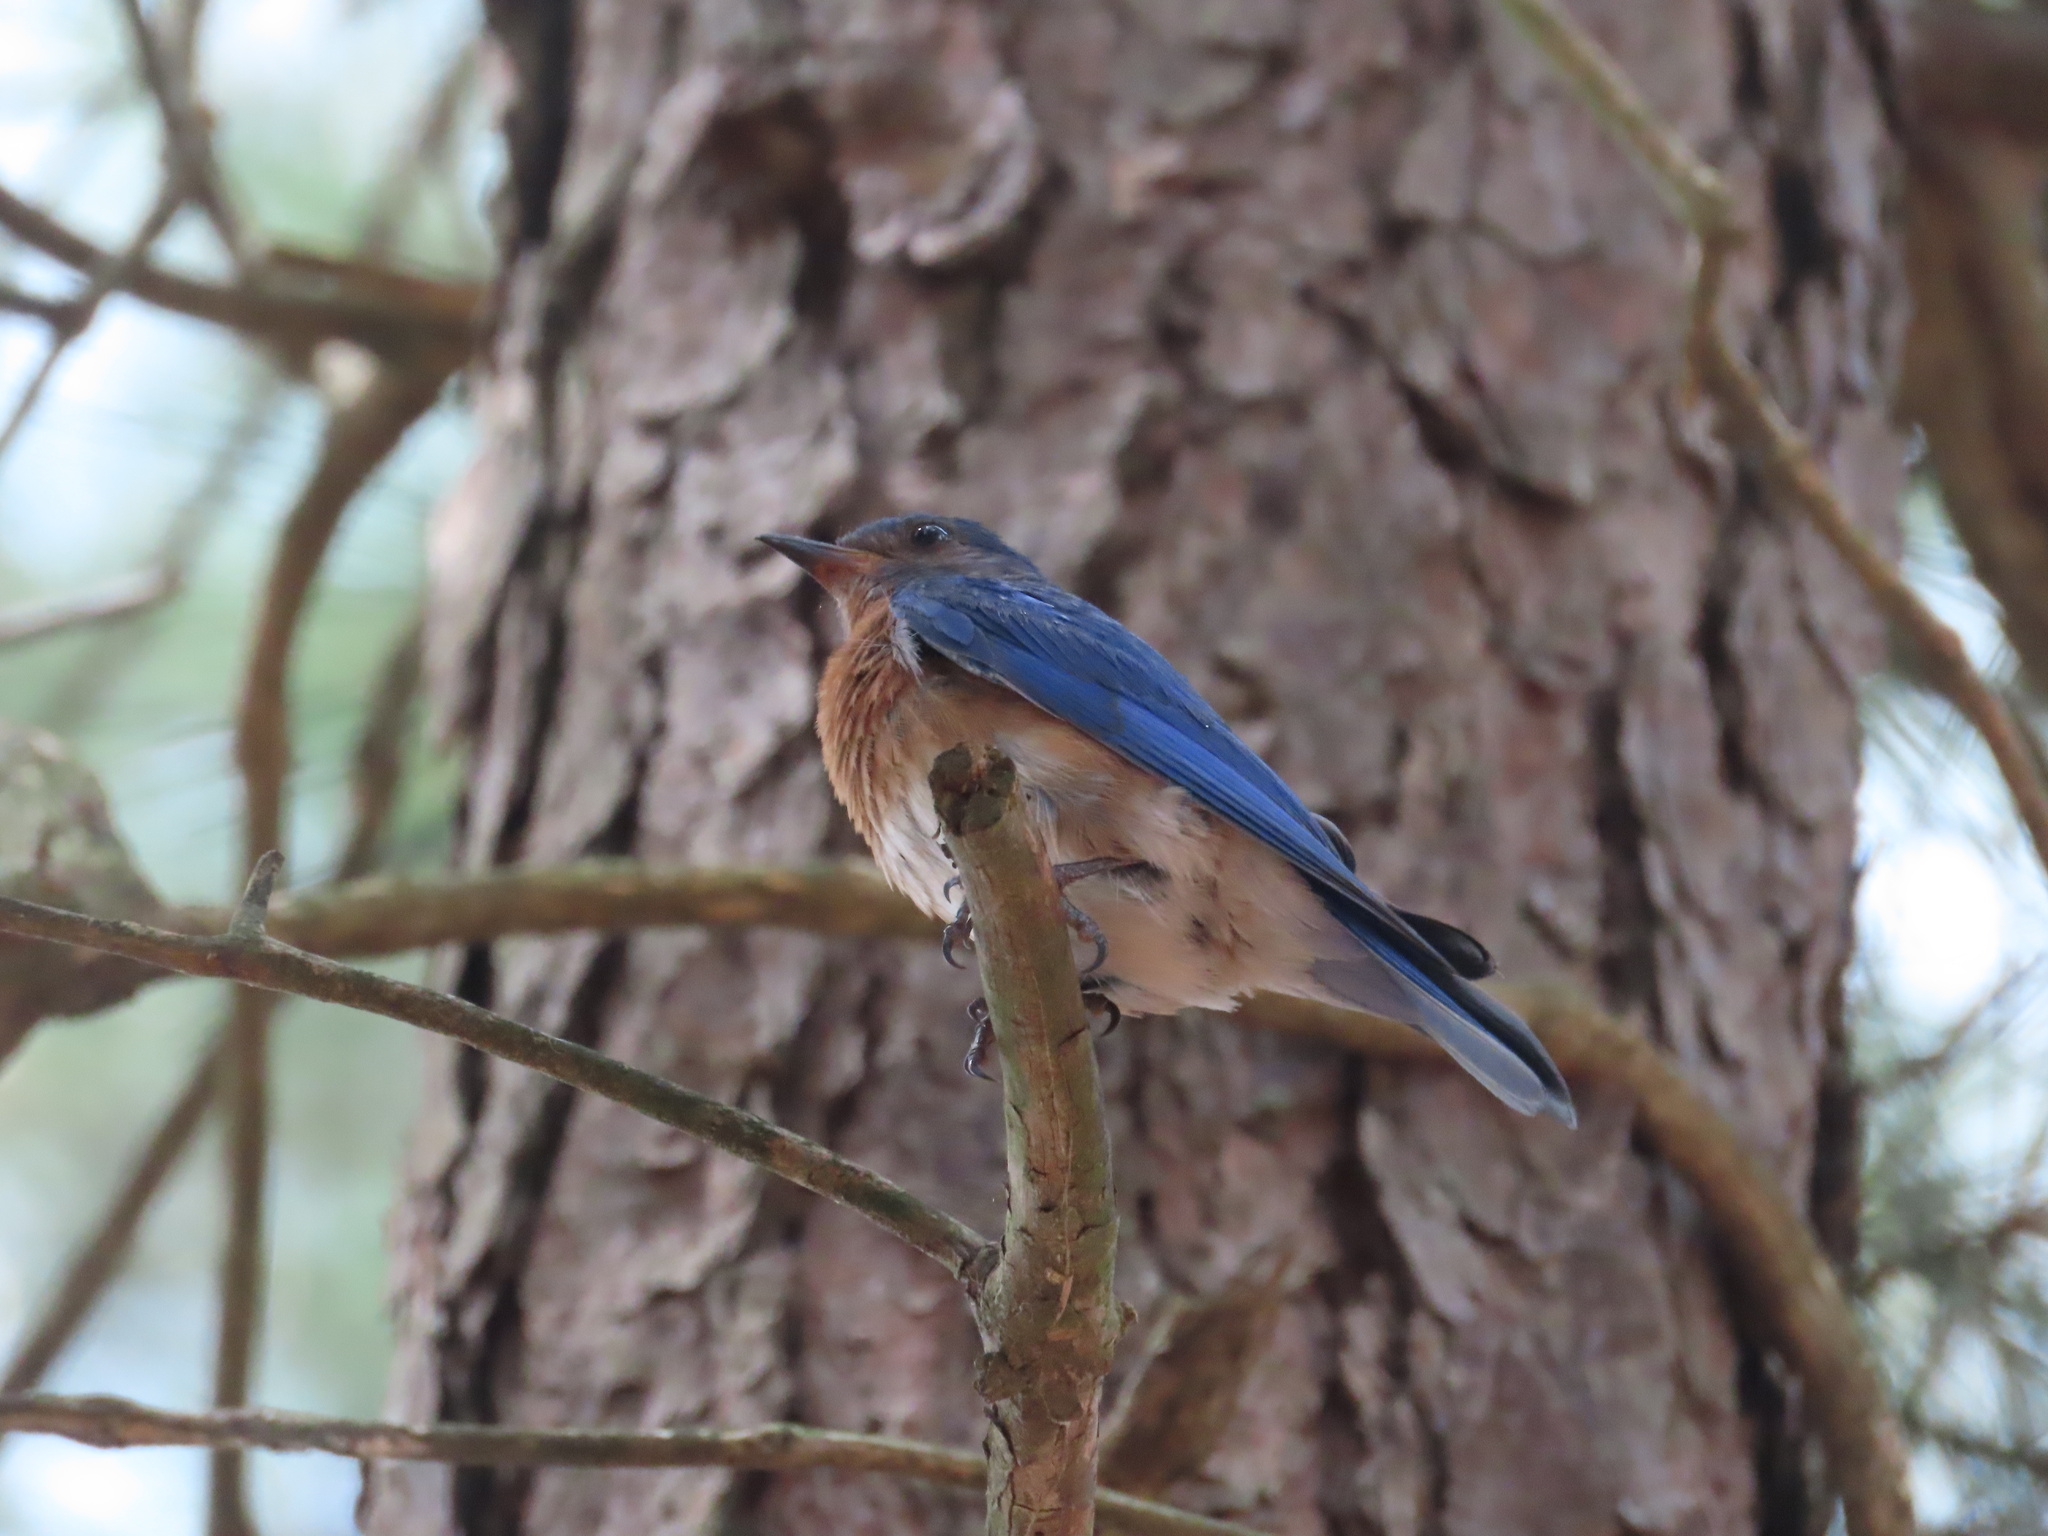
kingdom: Animalia
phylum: Chordata
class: Aves
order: Passeriformes
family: Turdidae
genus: Sialia
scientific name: Sialia sialis
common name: Eastern bluebird
